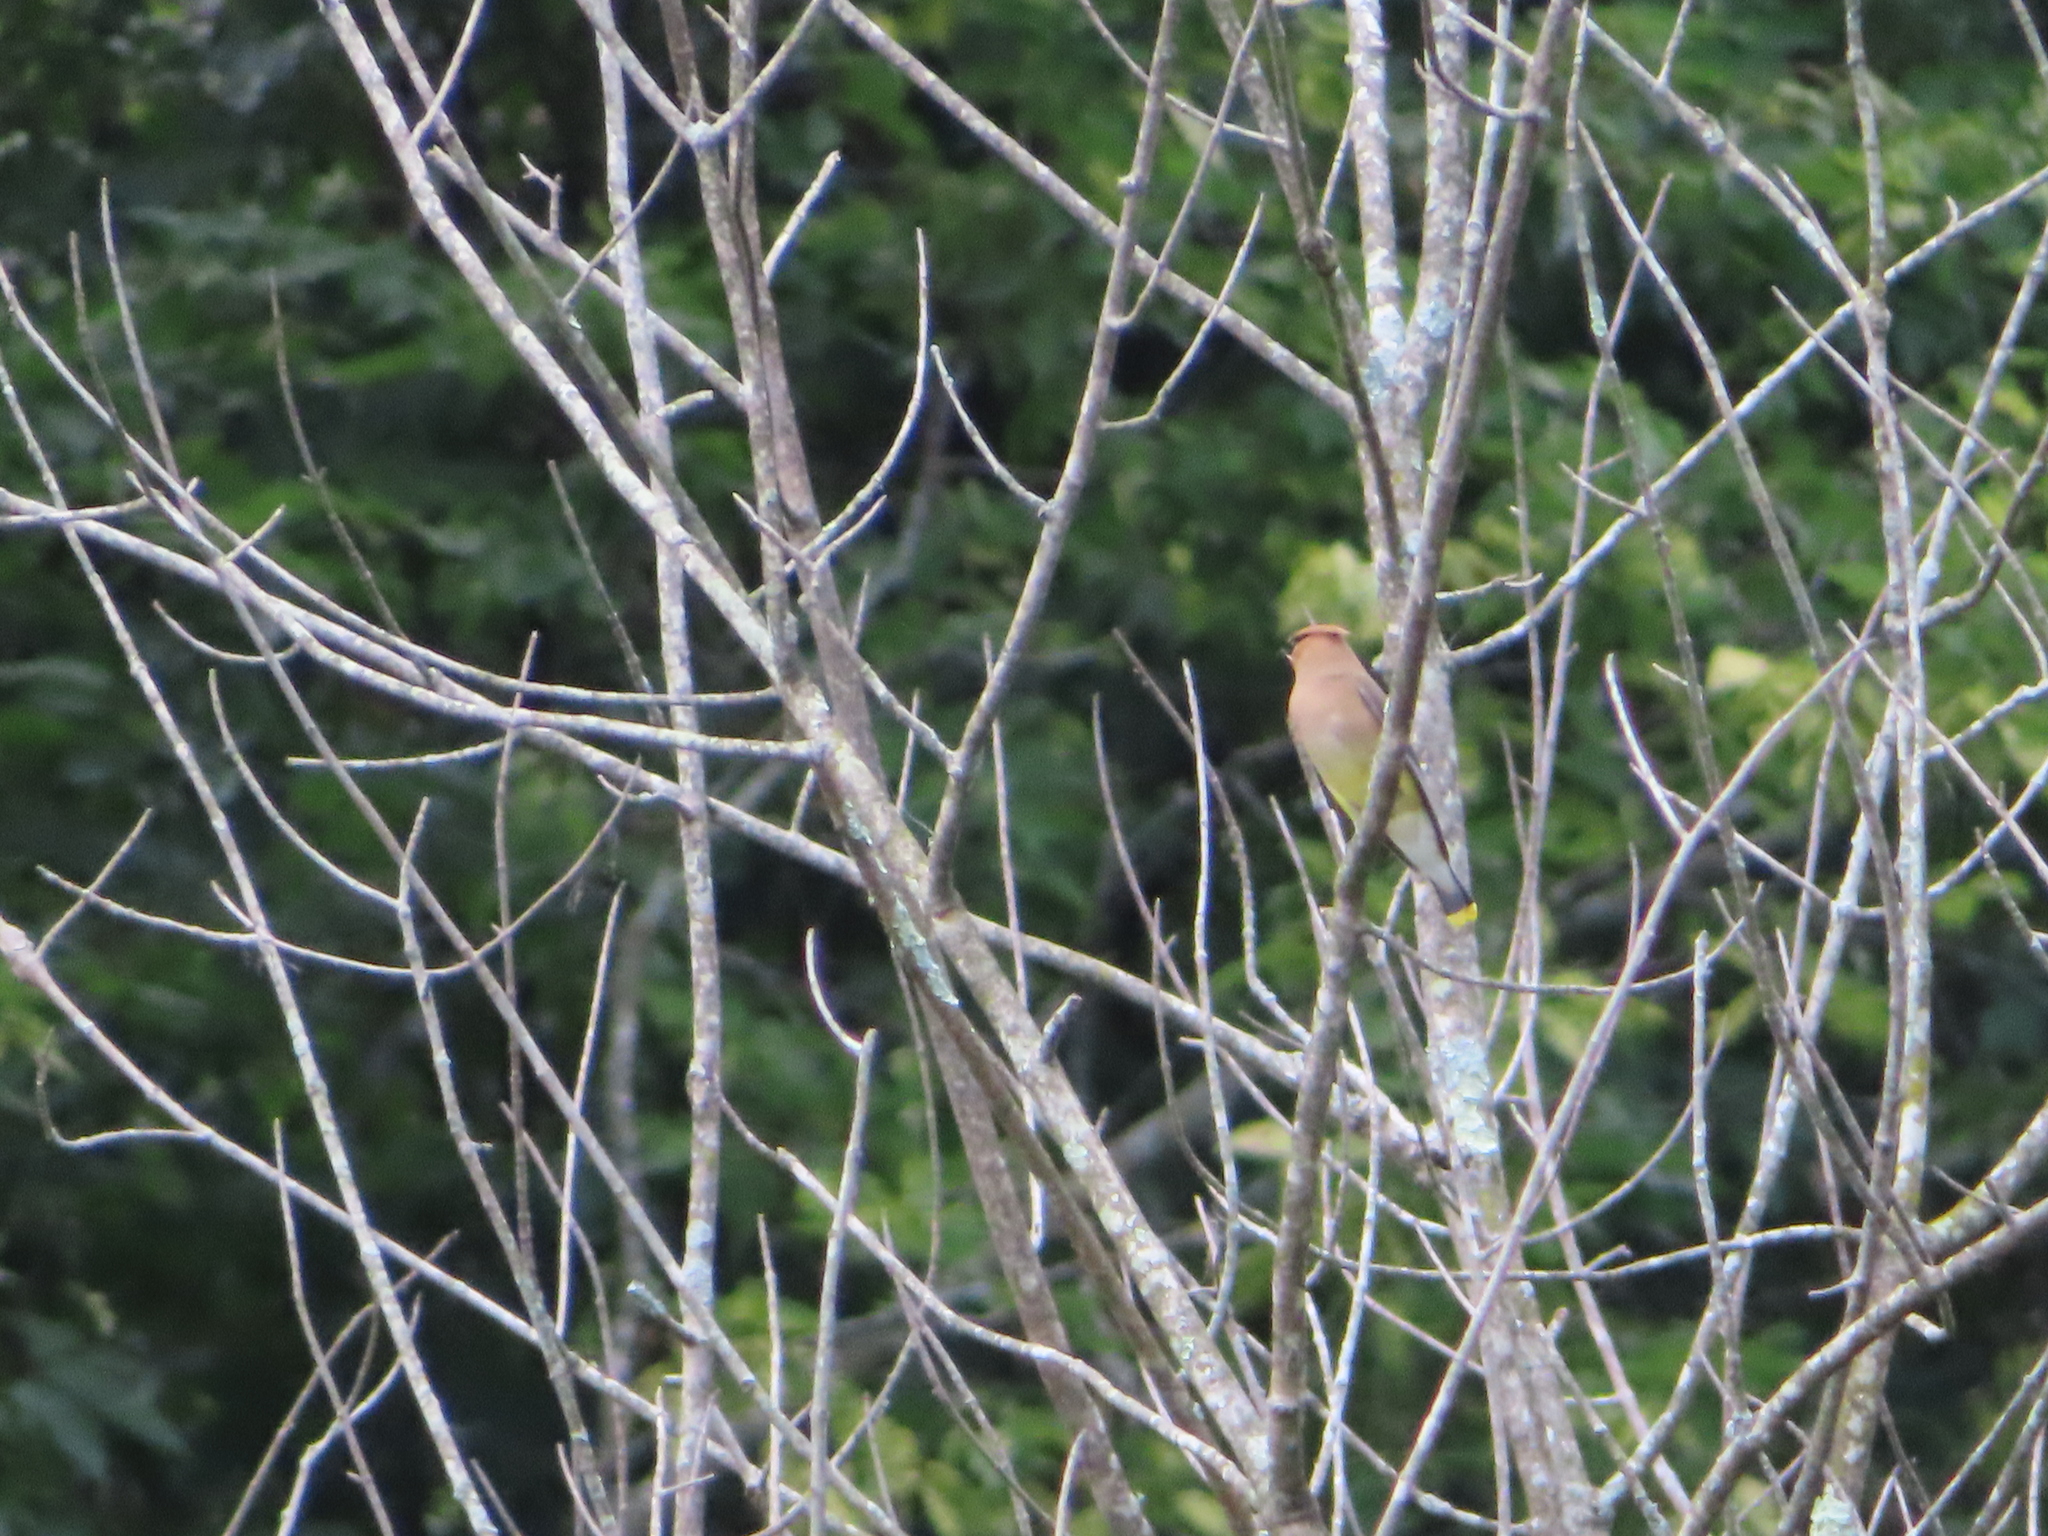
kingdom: Animalia
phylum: Chordata
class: Aves
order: Passeriformes
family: Bombycillidae
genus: Bombycilla
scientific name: Bombycilla cedrorum
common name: Cedar waxwing
